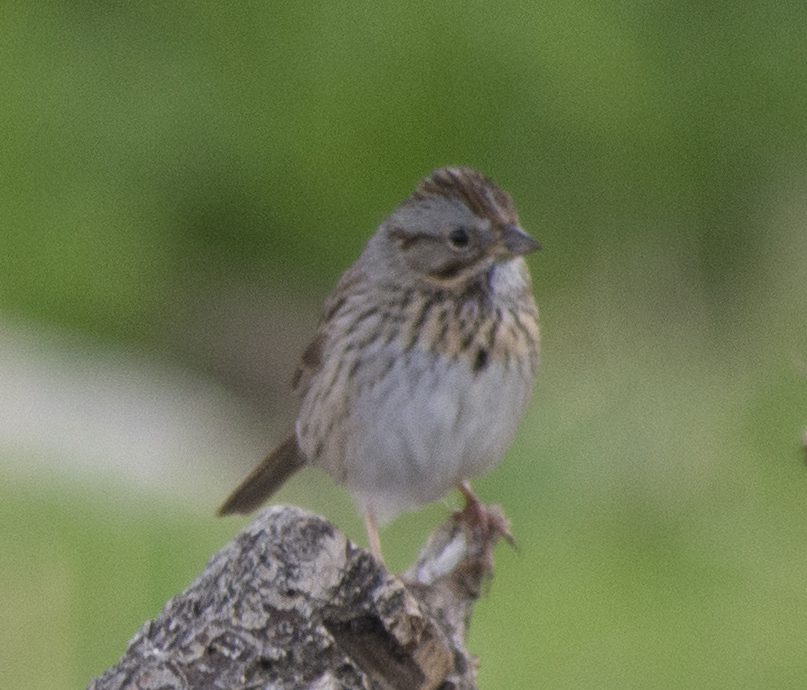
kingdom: Animalia
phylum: Chordata
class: Aves
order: Passeriformes
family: Passerellidae
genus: Melospiza
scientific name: Melospiza lincolnii
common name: Lincoln's sparrow
